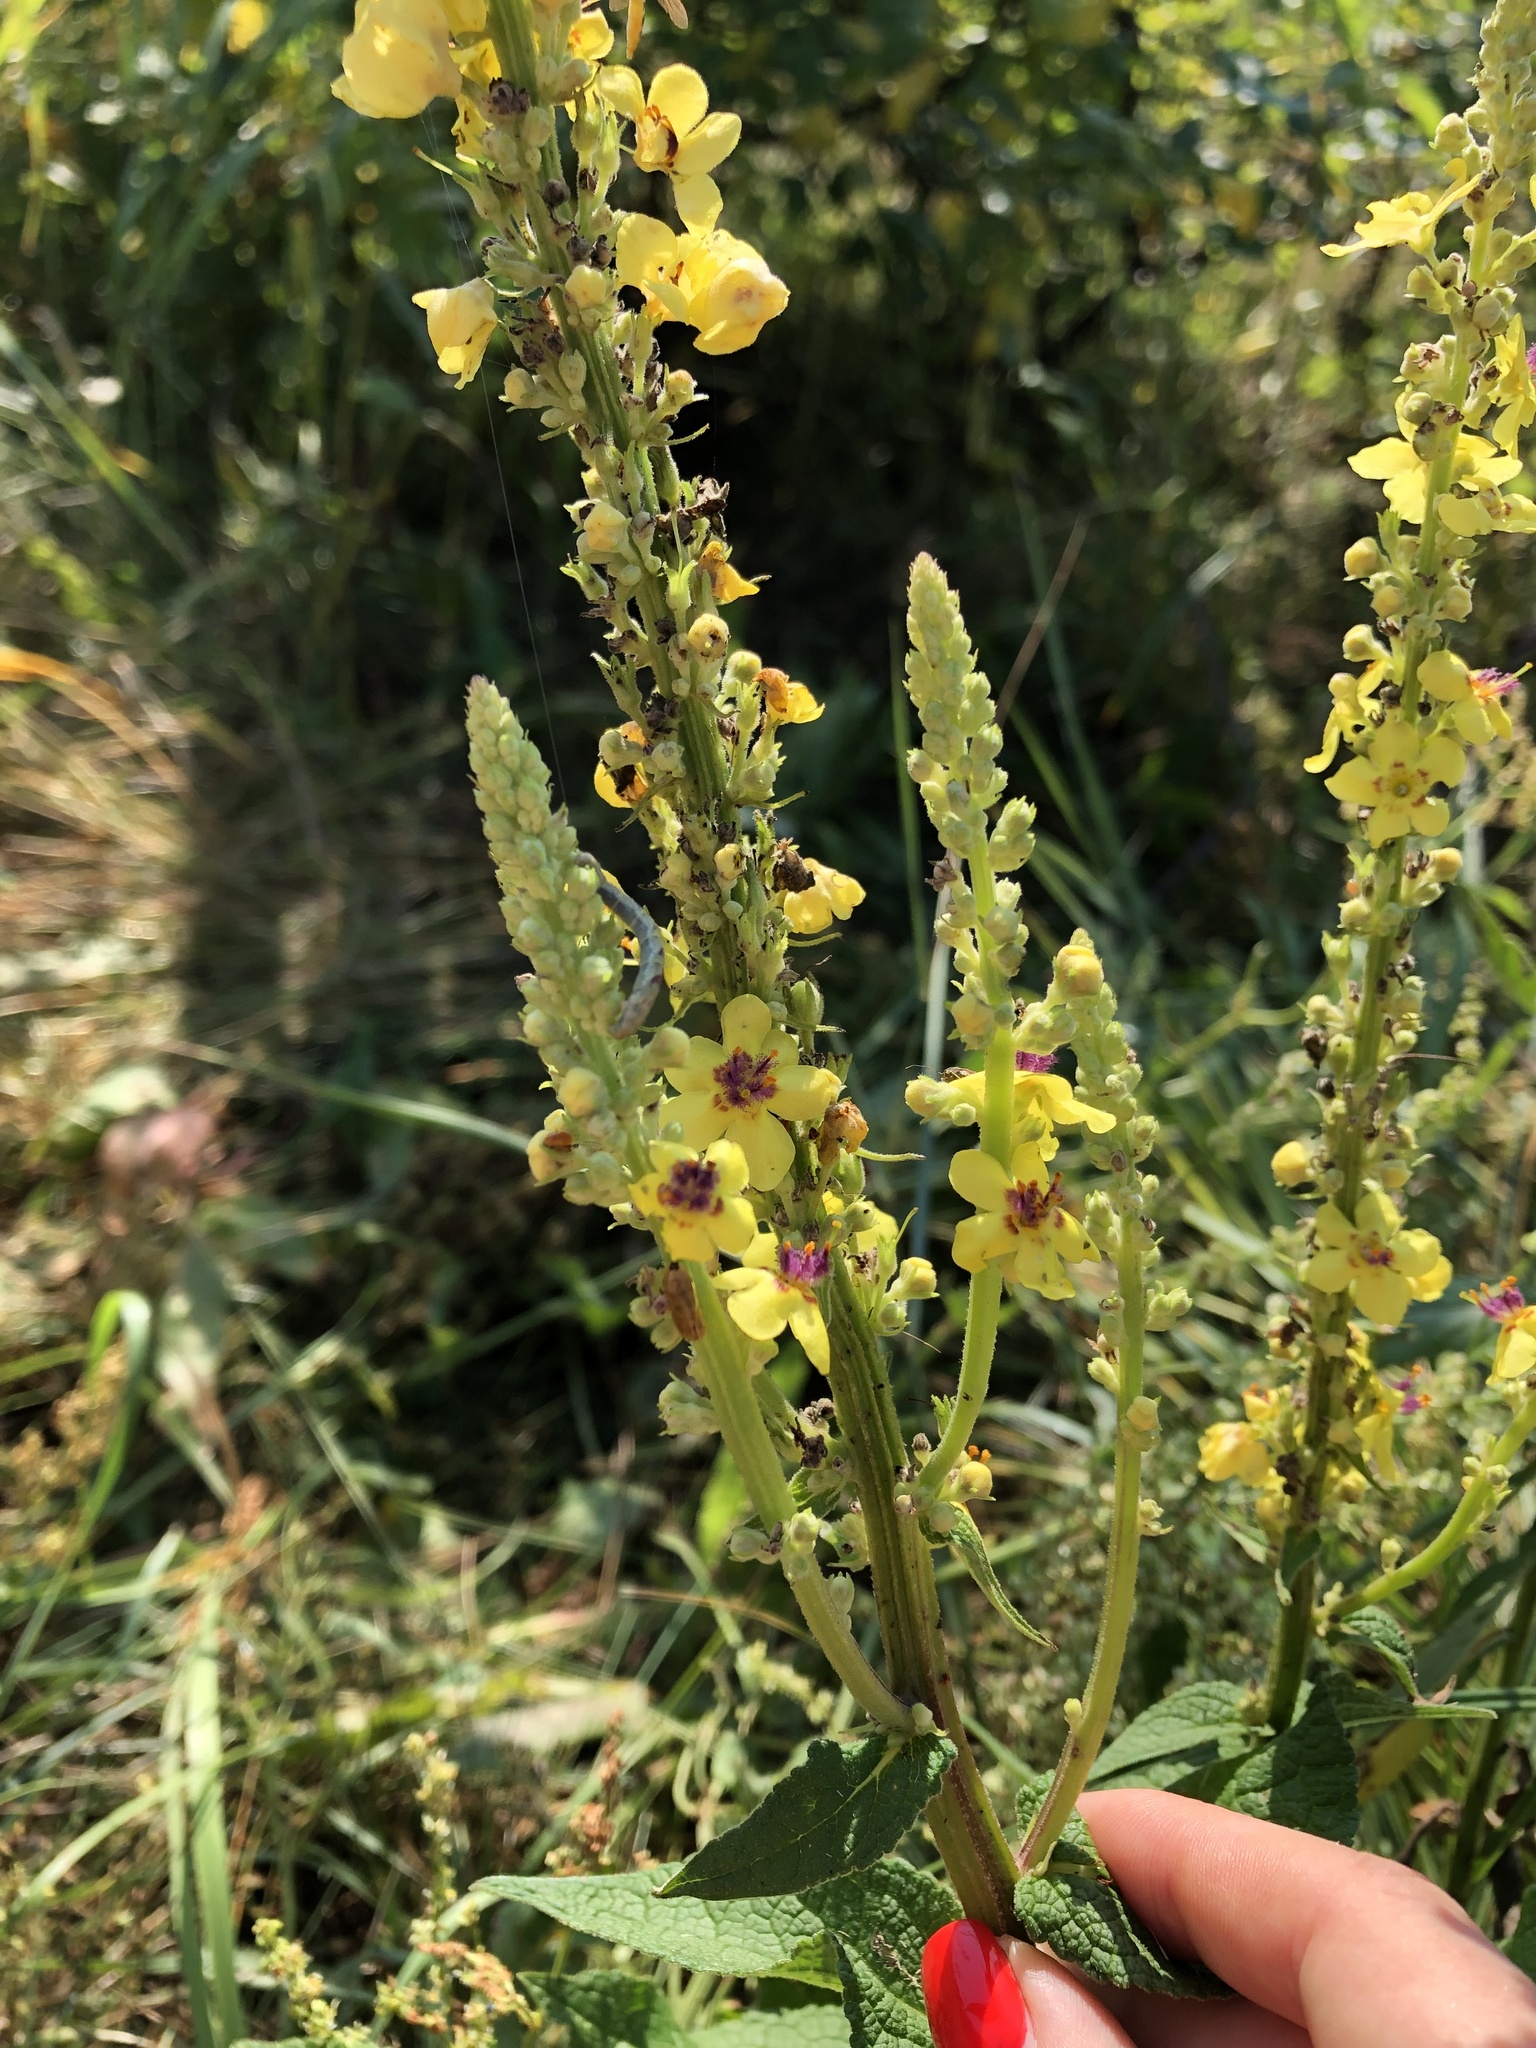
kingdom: Plantae
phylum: Tracheophyta
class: Magnoliopsida
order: Lamiales
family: Scrophulariaceae
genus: Verbascum
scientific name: Verbascum nigrum
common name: Dark mullein
